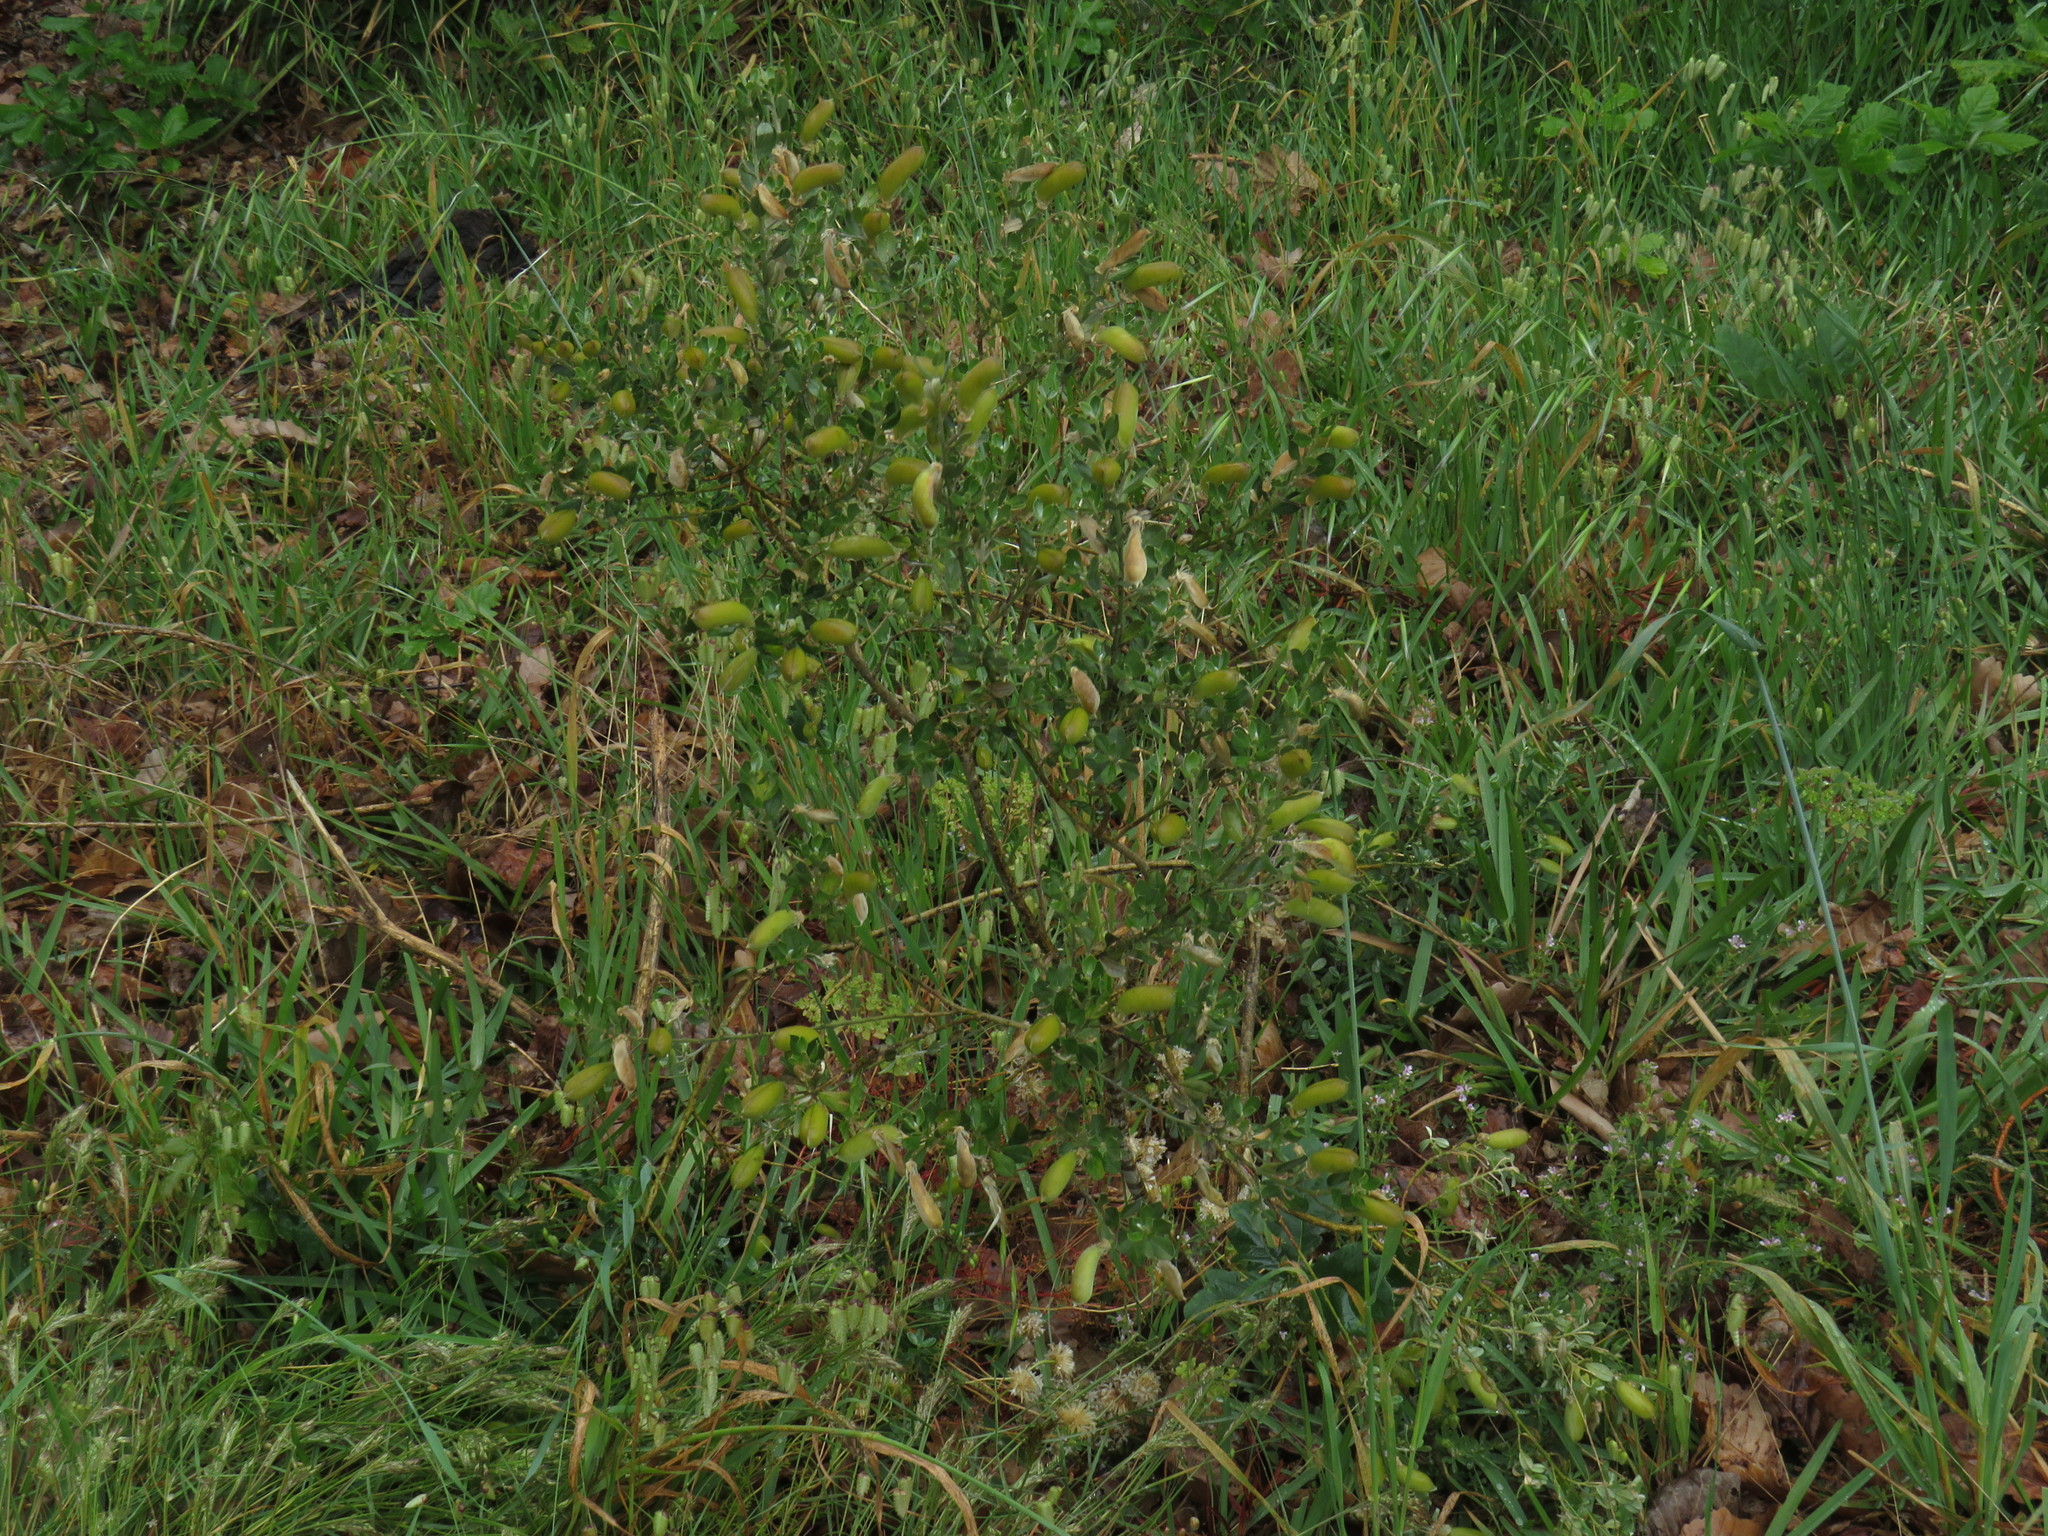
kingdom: Plantae
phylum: Tracheophyta
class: Magnoliopsida
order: Fabales
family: Fabaceae
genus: Podalyria
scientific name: Podalyria myrtillifolia
